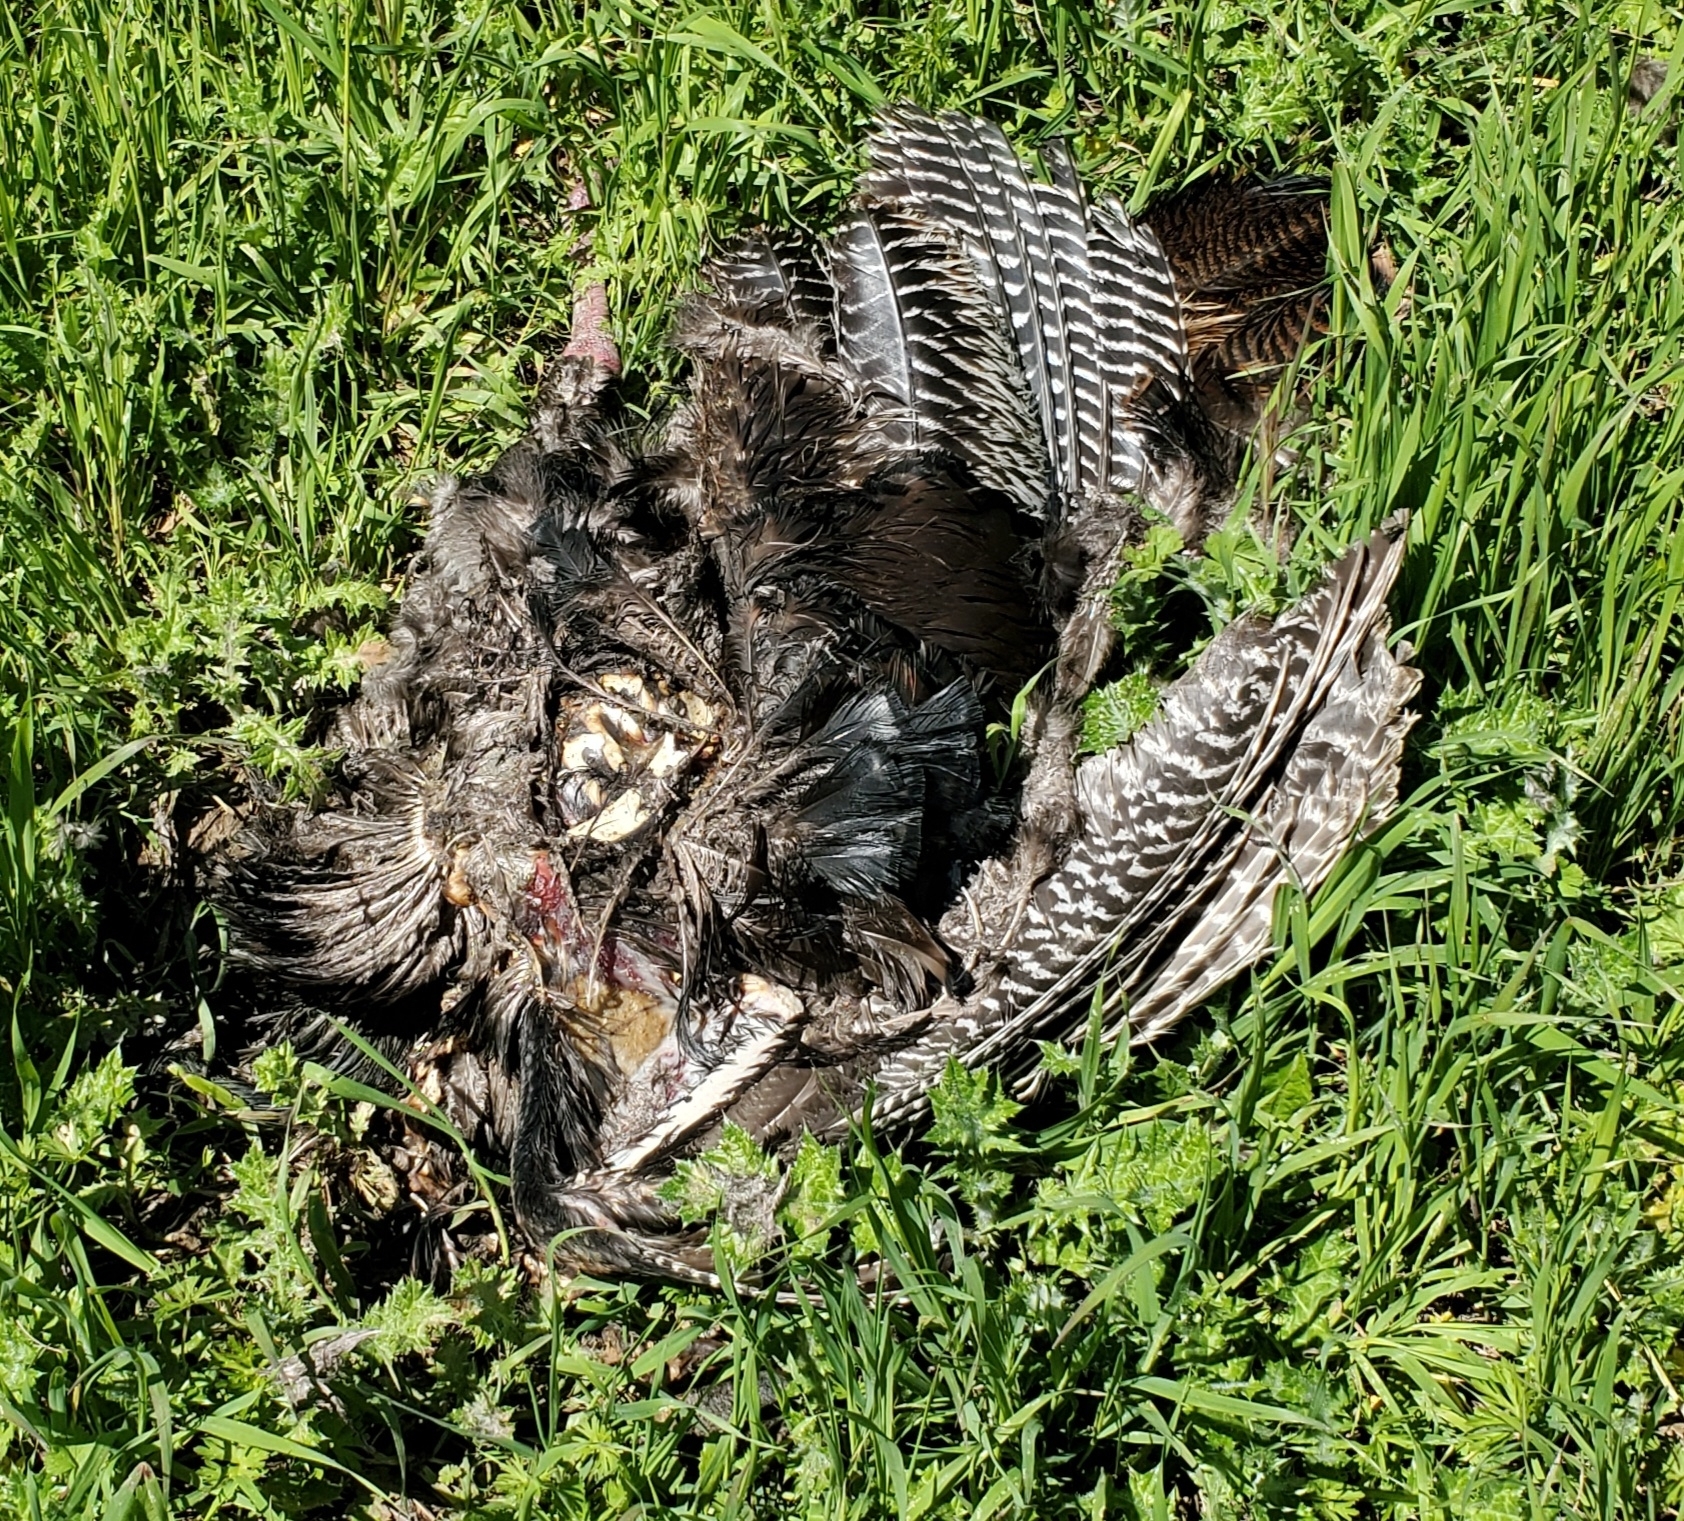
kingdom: Animalia
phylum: Chordata
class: Aves
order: Galliformes
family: Phasianidae
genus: Meleagris
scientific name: Meleagris gallopavo
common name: Wild turkey
